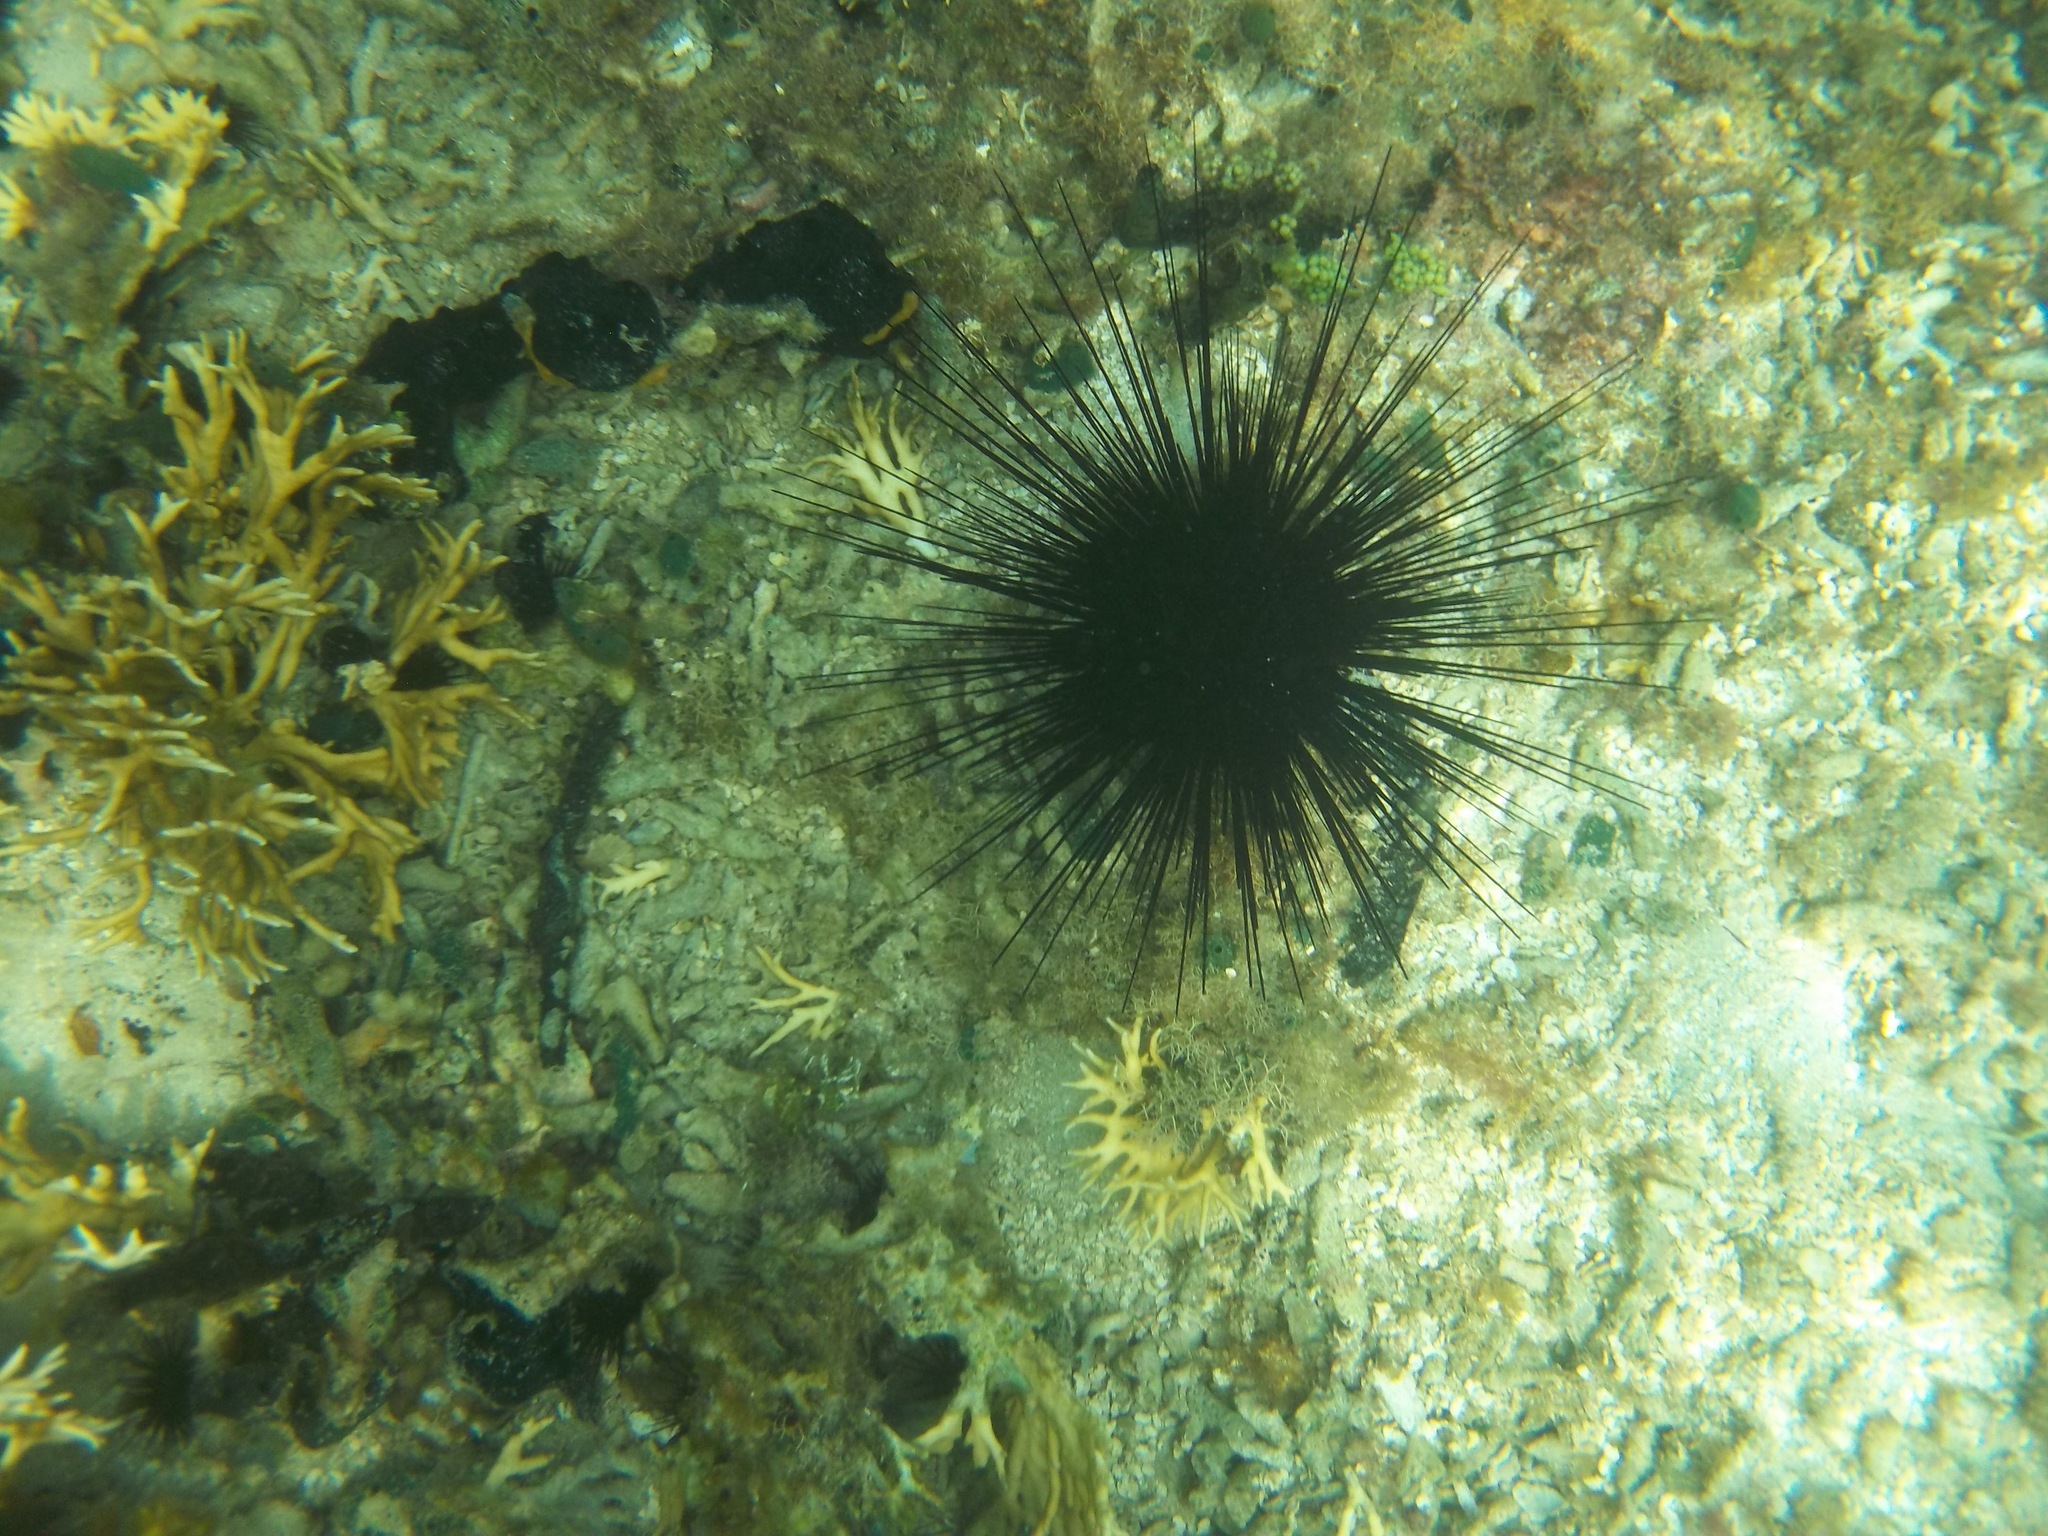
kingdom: Animalia
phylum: Echinodermata
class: Echinoidea
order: Diadematoida
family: Diadematidae
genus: Diadema
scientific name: Diadema antillarum
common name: Spiny urchin
